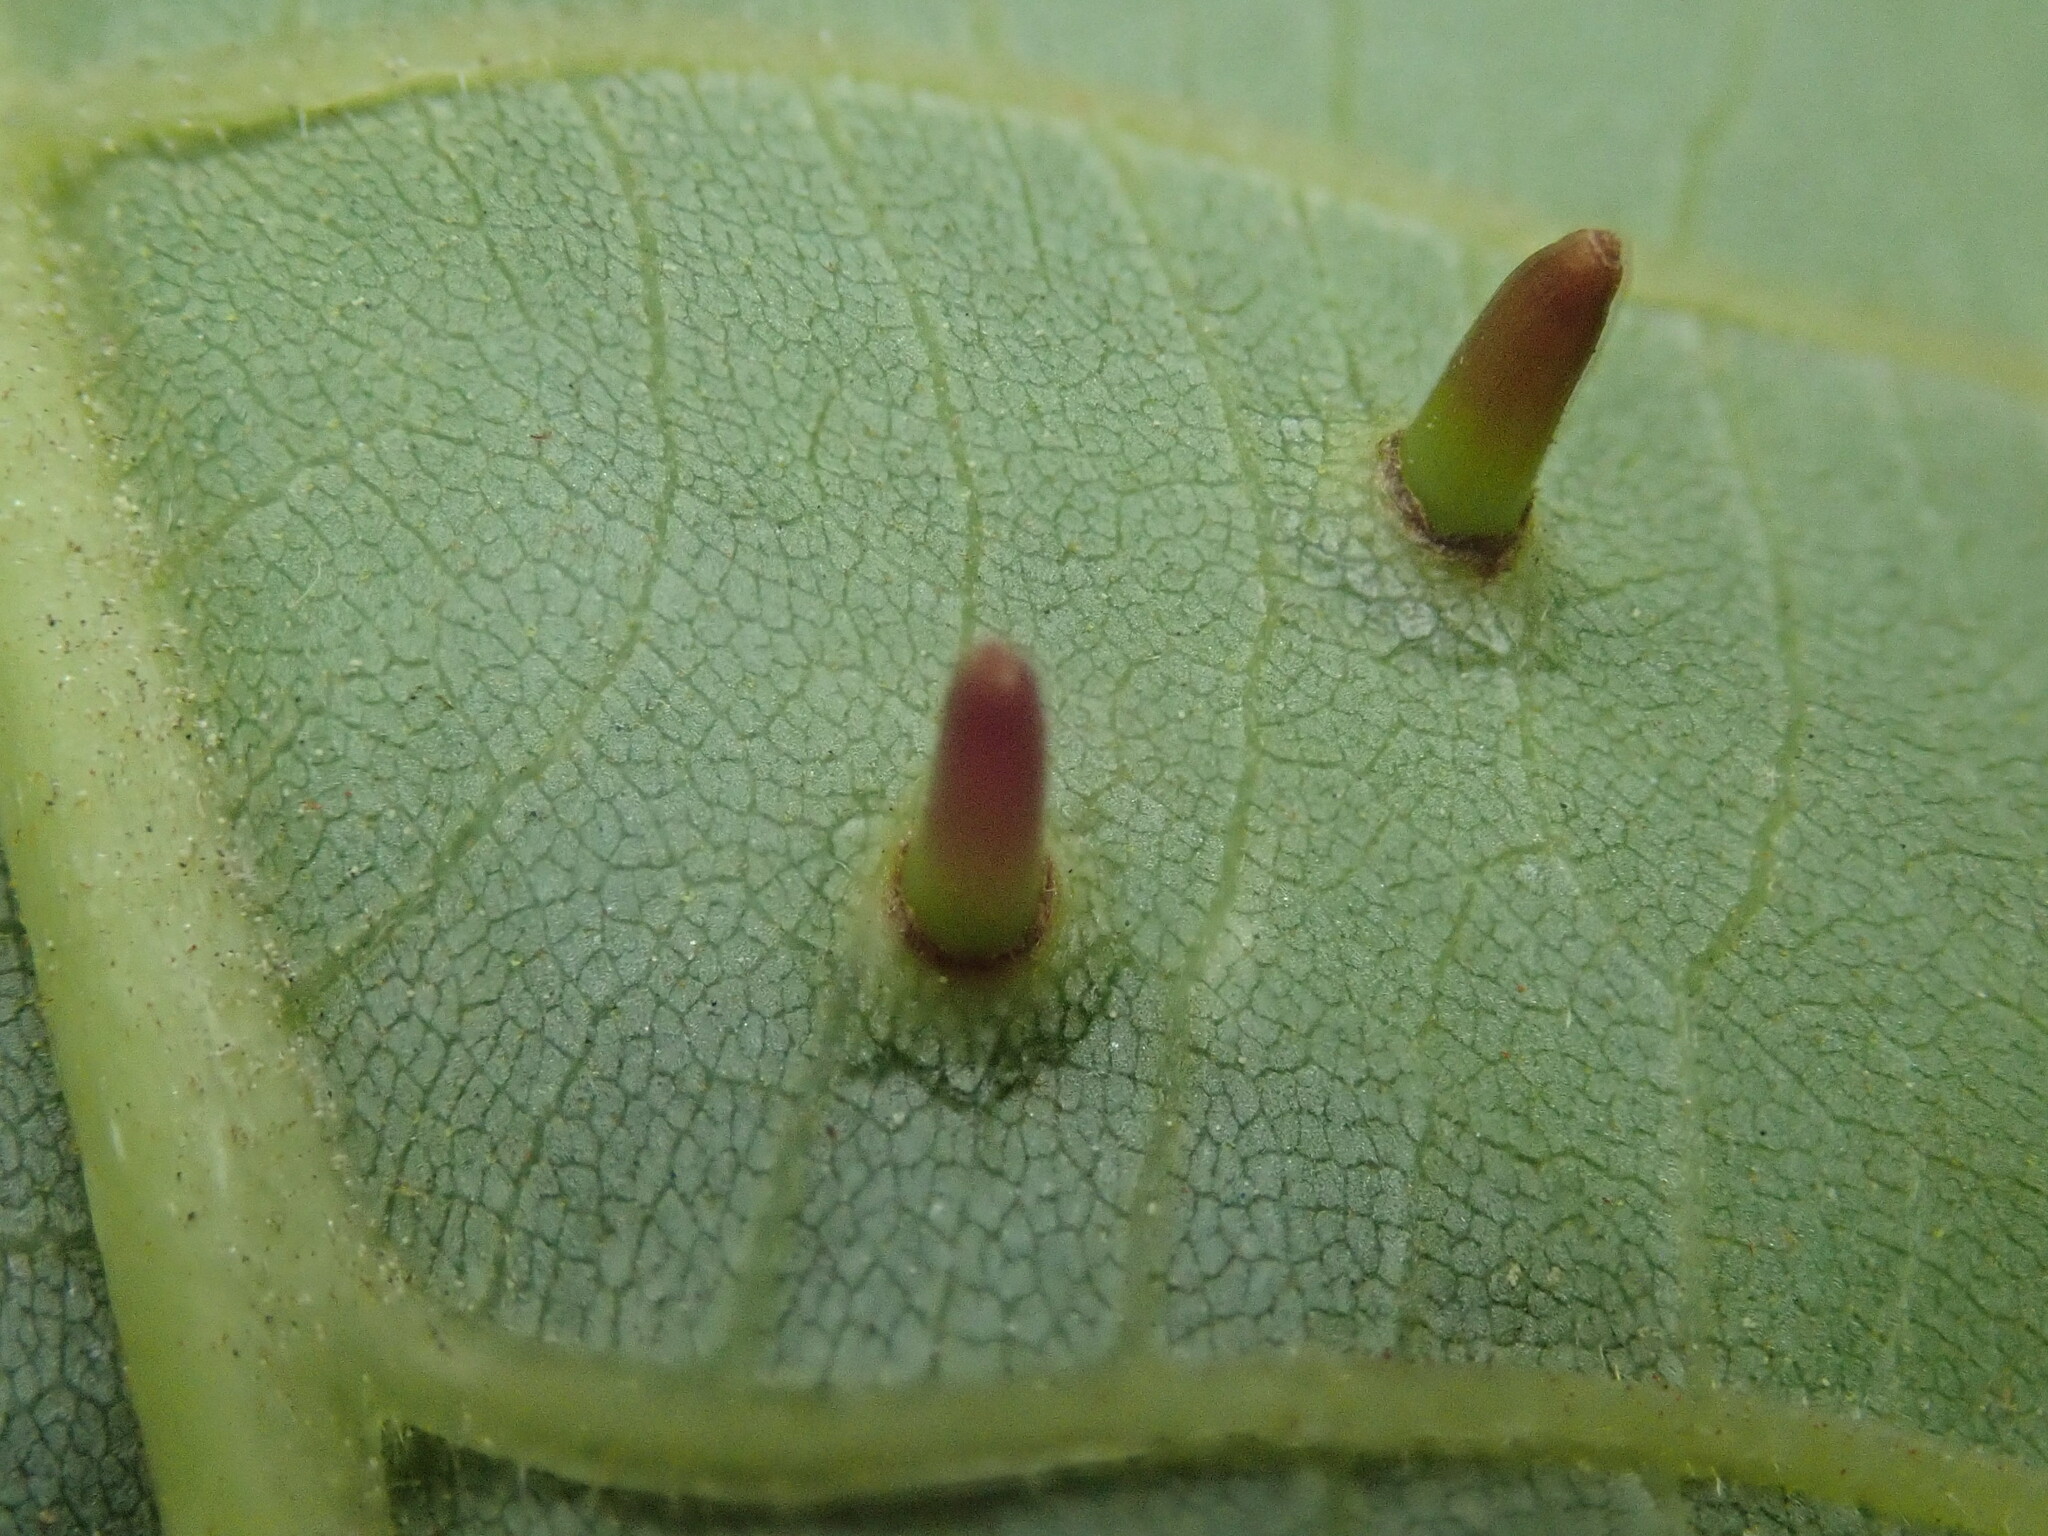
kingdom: Animalia
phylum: Arthropoda
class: Insecta
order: Diptera
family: Cecidomyiidae
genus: Caryomyia
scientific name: Caryomyia subulata
